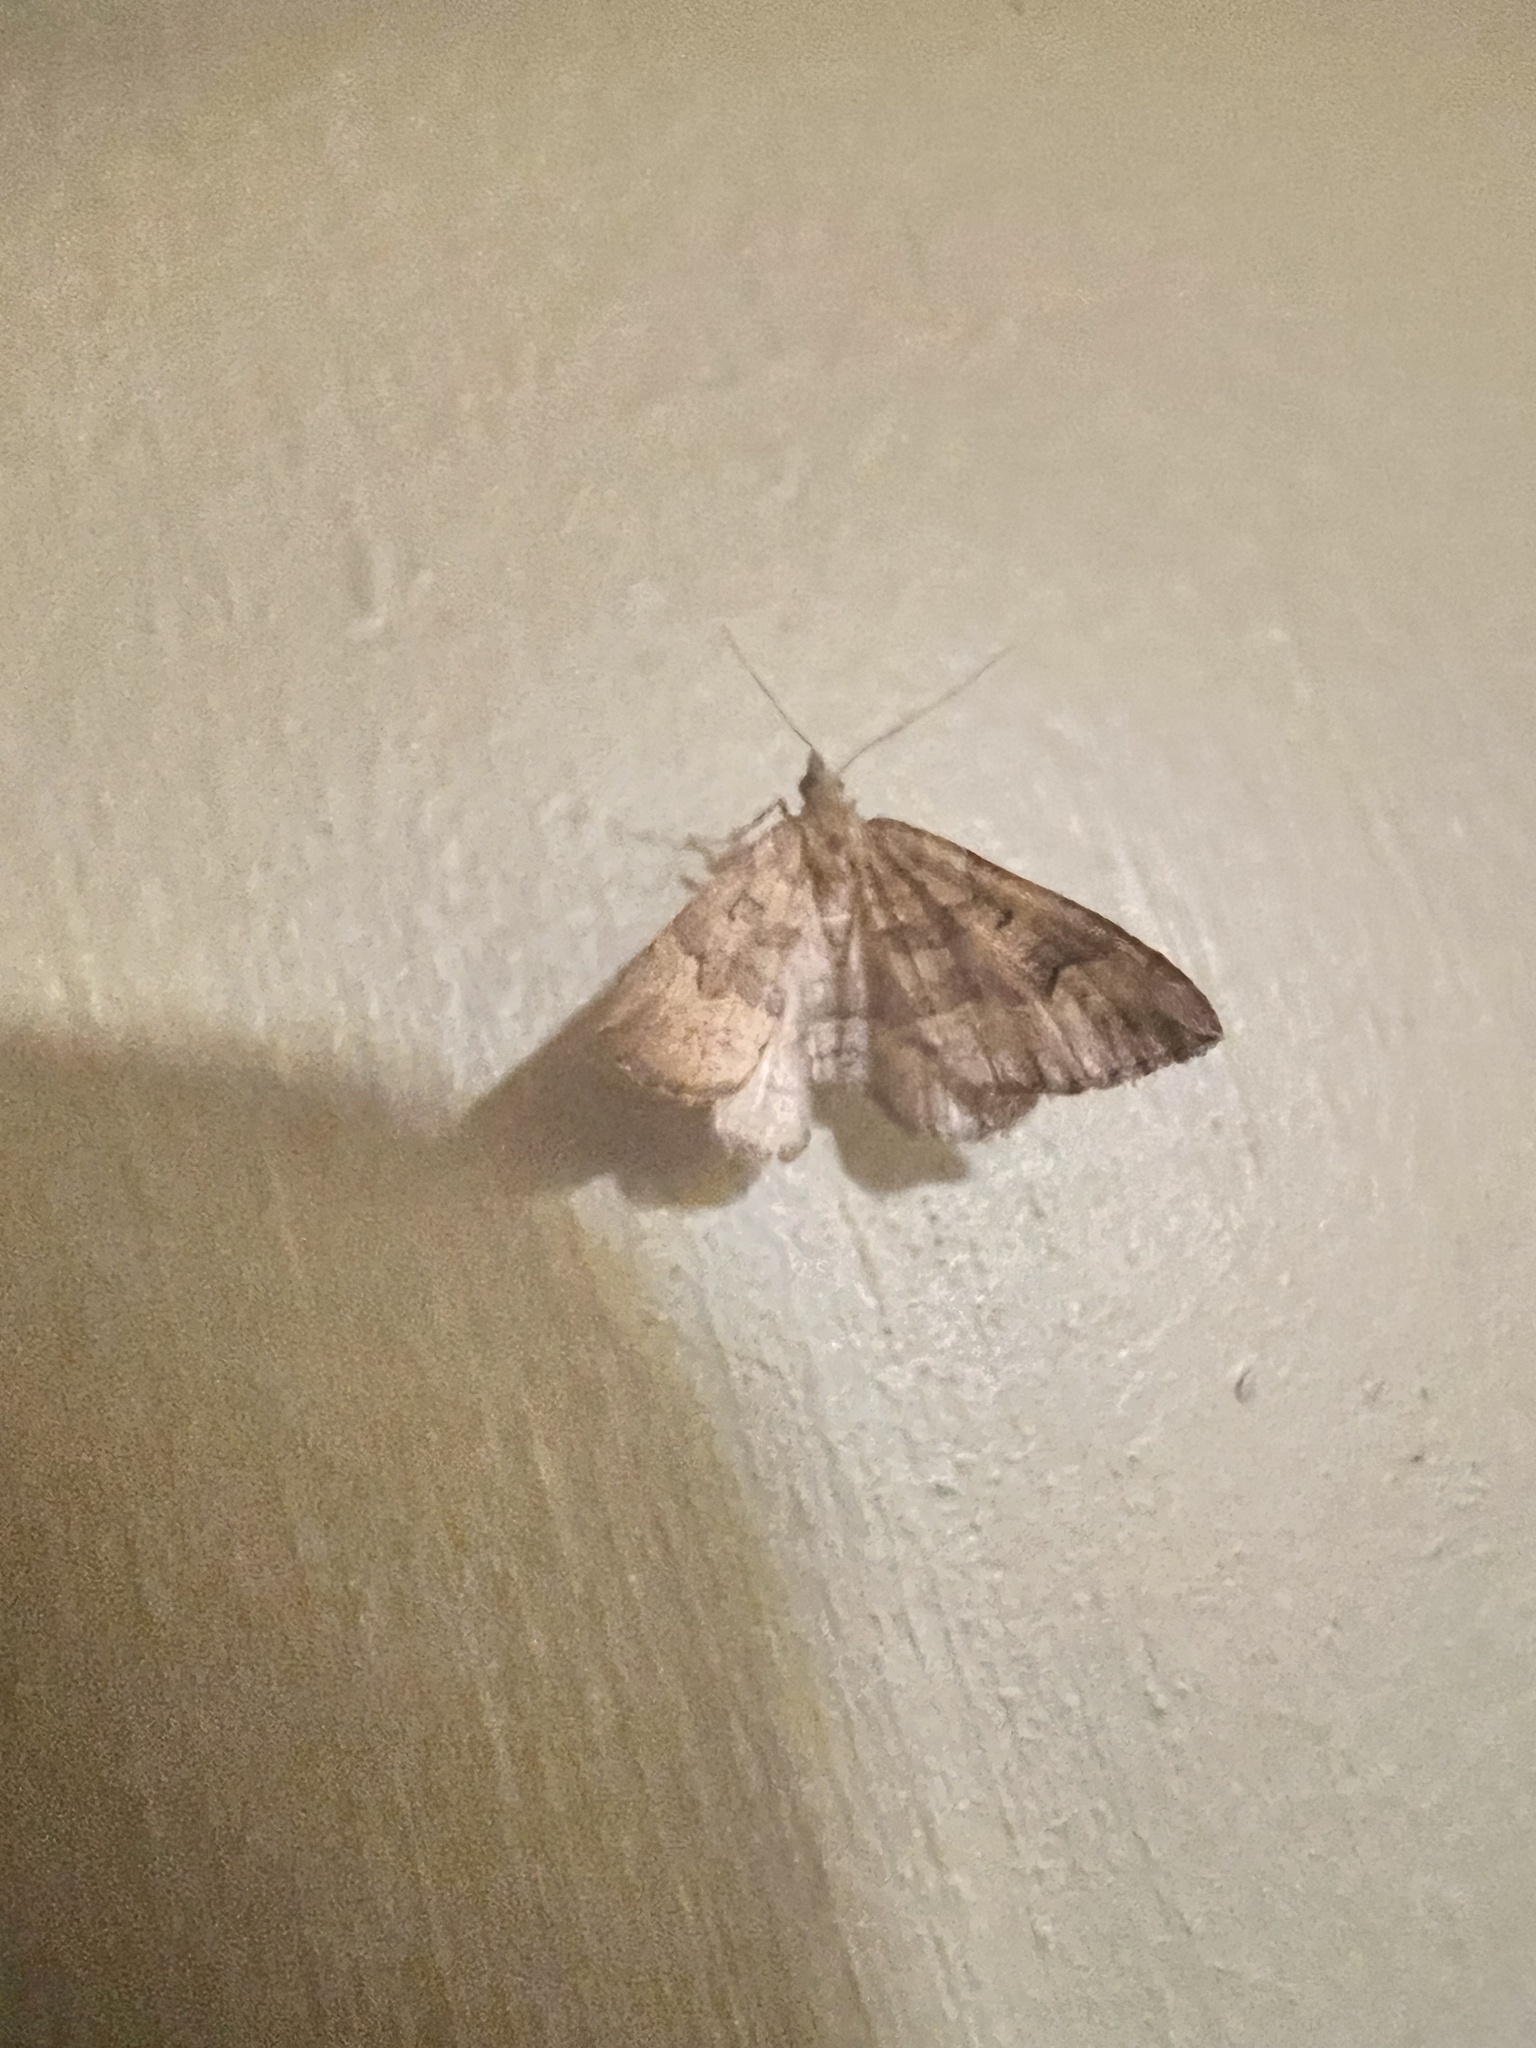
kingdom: Animalia
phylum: Arthropoda
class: Insecta
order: Lepidoptera
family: Geometridae
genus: Epyaxa
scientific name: Epyaxa rosearia
